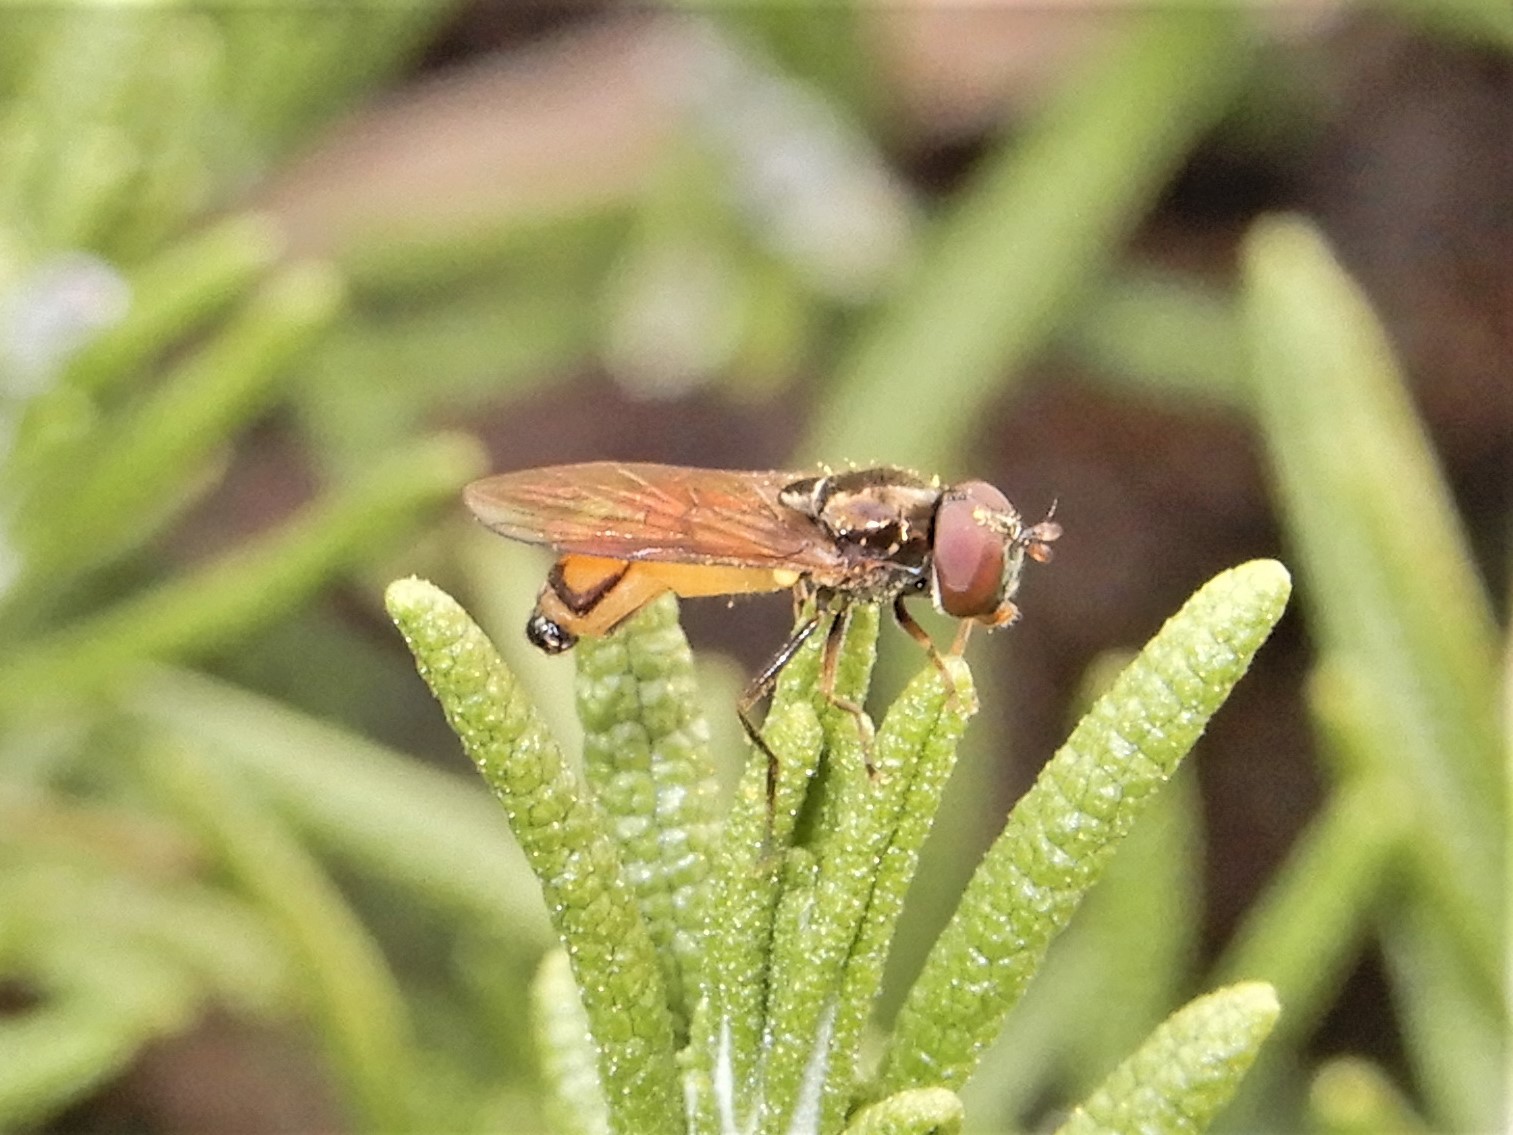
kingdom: Animalia
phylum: Arthropoda
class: Insecta
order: Diptera
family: Syrphidae
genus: Melanostoma
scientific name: Melanostoma fasciatum
